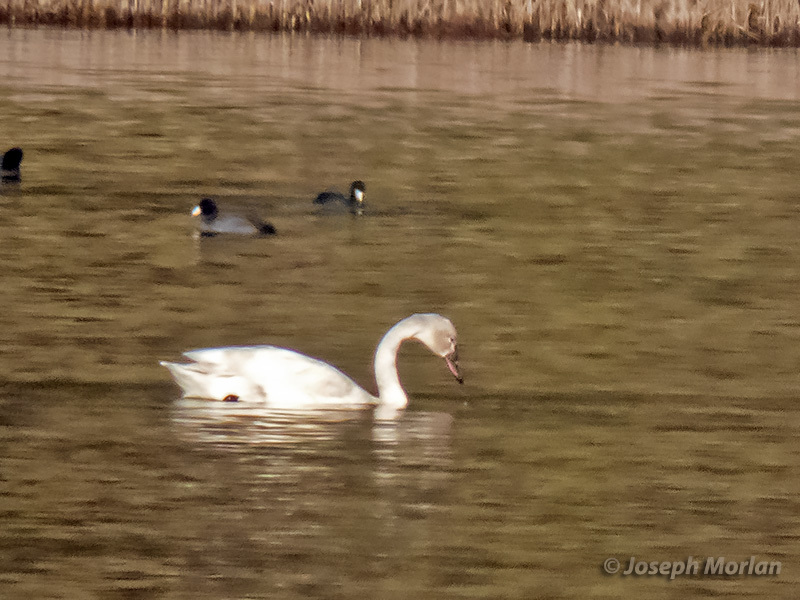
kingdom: Animalia
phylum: Chordata
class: Aves
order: Anseriformes
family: Anatidae
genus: Cygnus
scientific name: Cygnus columbianus
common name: Tundra swan
